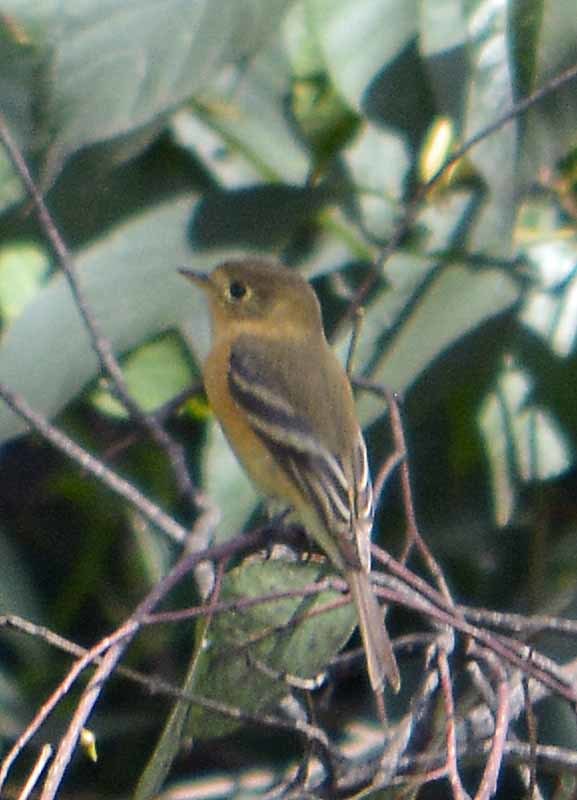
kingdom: Animalia
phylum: Chordata
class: Aves
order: Passeriformes
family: Tyrannidae
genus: Empidonax
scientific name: Empidonax fulvifrons
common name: Buff-breasted flycatcher
